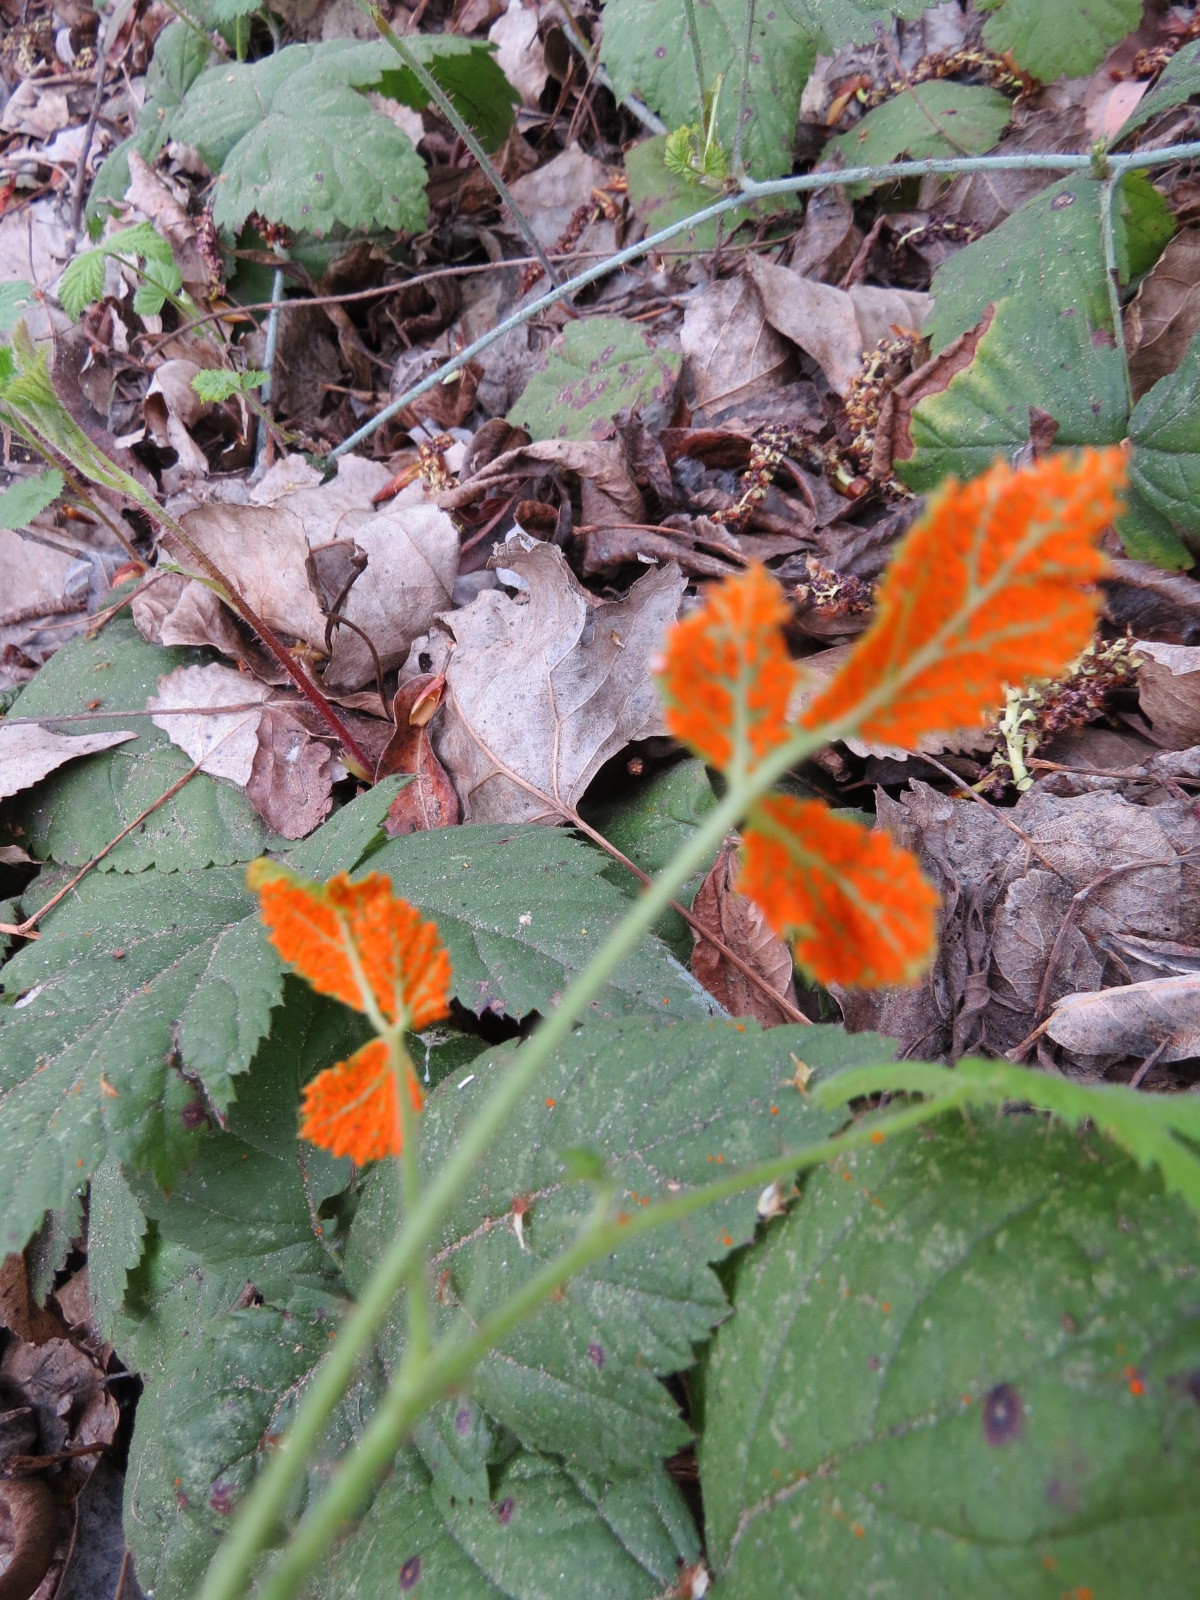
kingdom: Fungi
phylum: Basidiomycota
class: Pucciniomycetes
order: Pucciniales
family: Phragmidiaceae
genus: Arthuriomyces
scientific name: Arthuriomyces peckianus
